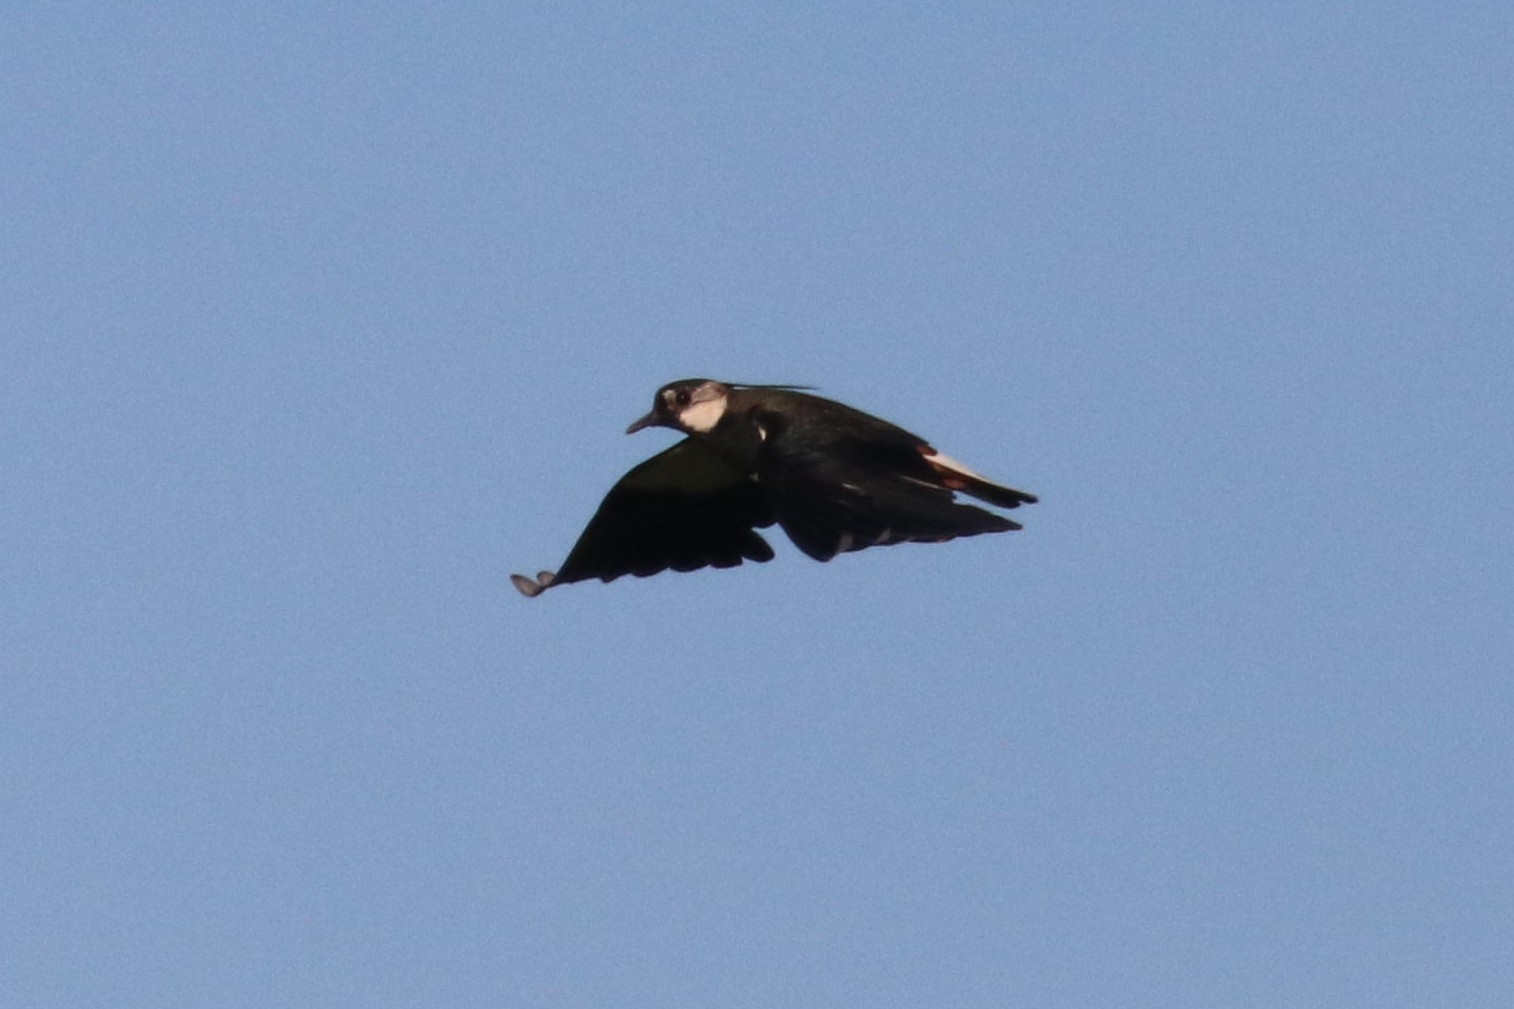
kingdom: Animalia
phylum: Chordata
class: Aves
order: Charadriiformes
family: Charadriidae
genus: Vanellus
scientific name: Vanellus vanellus
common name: Northern lapwing
